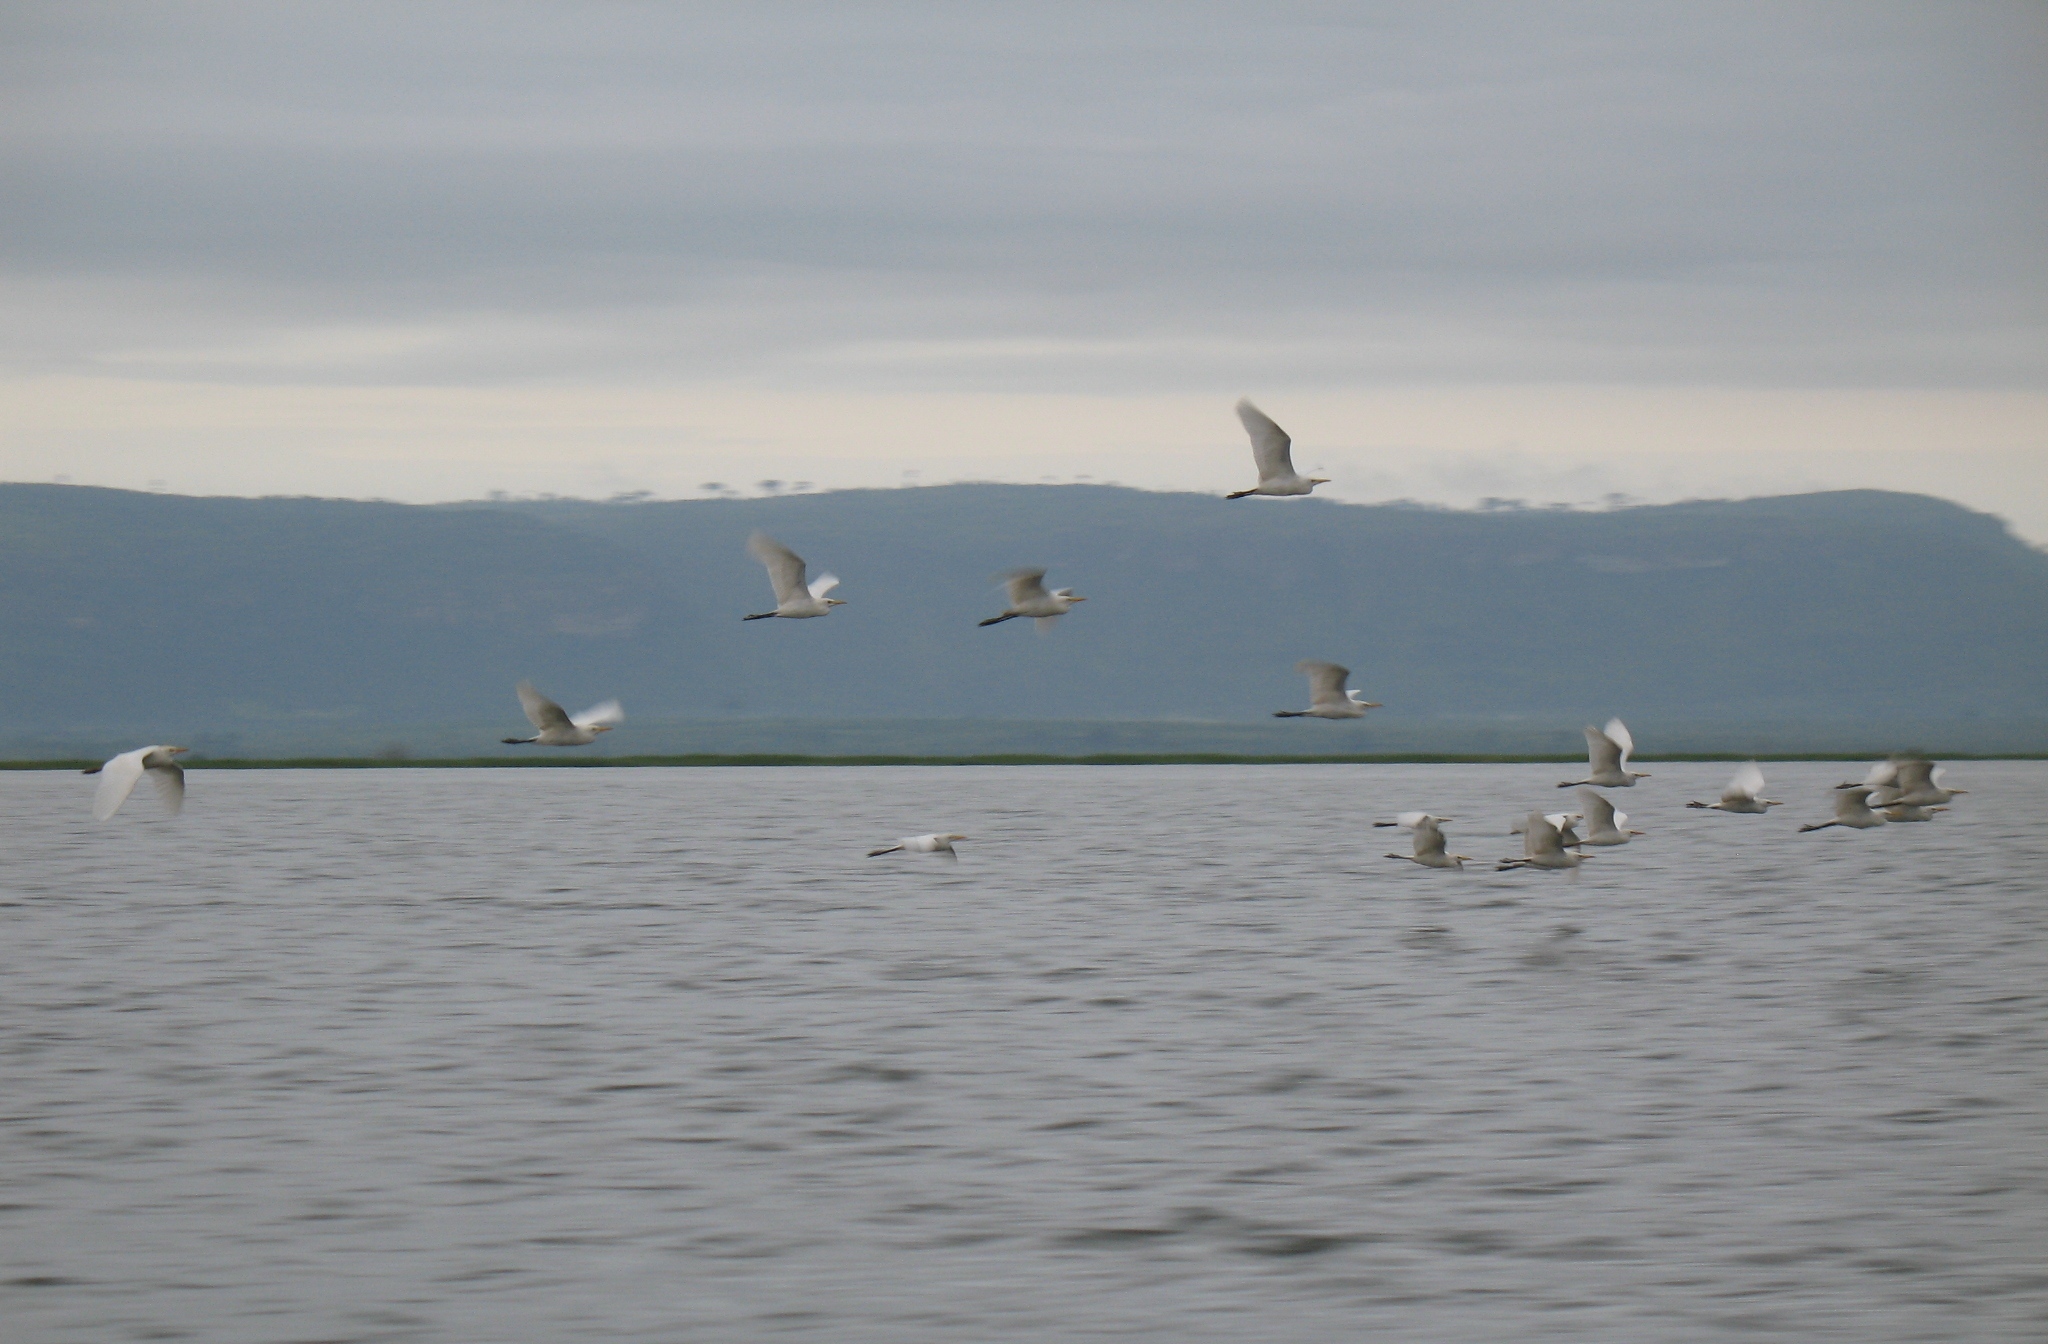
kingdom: Animalia
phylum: Chordata
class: Aves
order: Pelecaniformes
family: Ardeidae
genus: Bubulcus
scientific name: Bubulcus ibis
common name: Cattle egret
